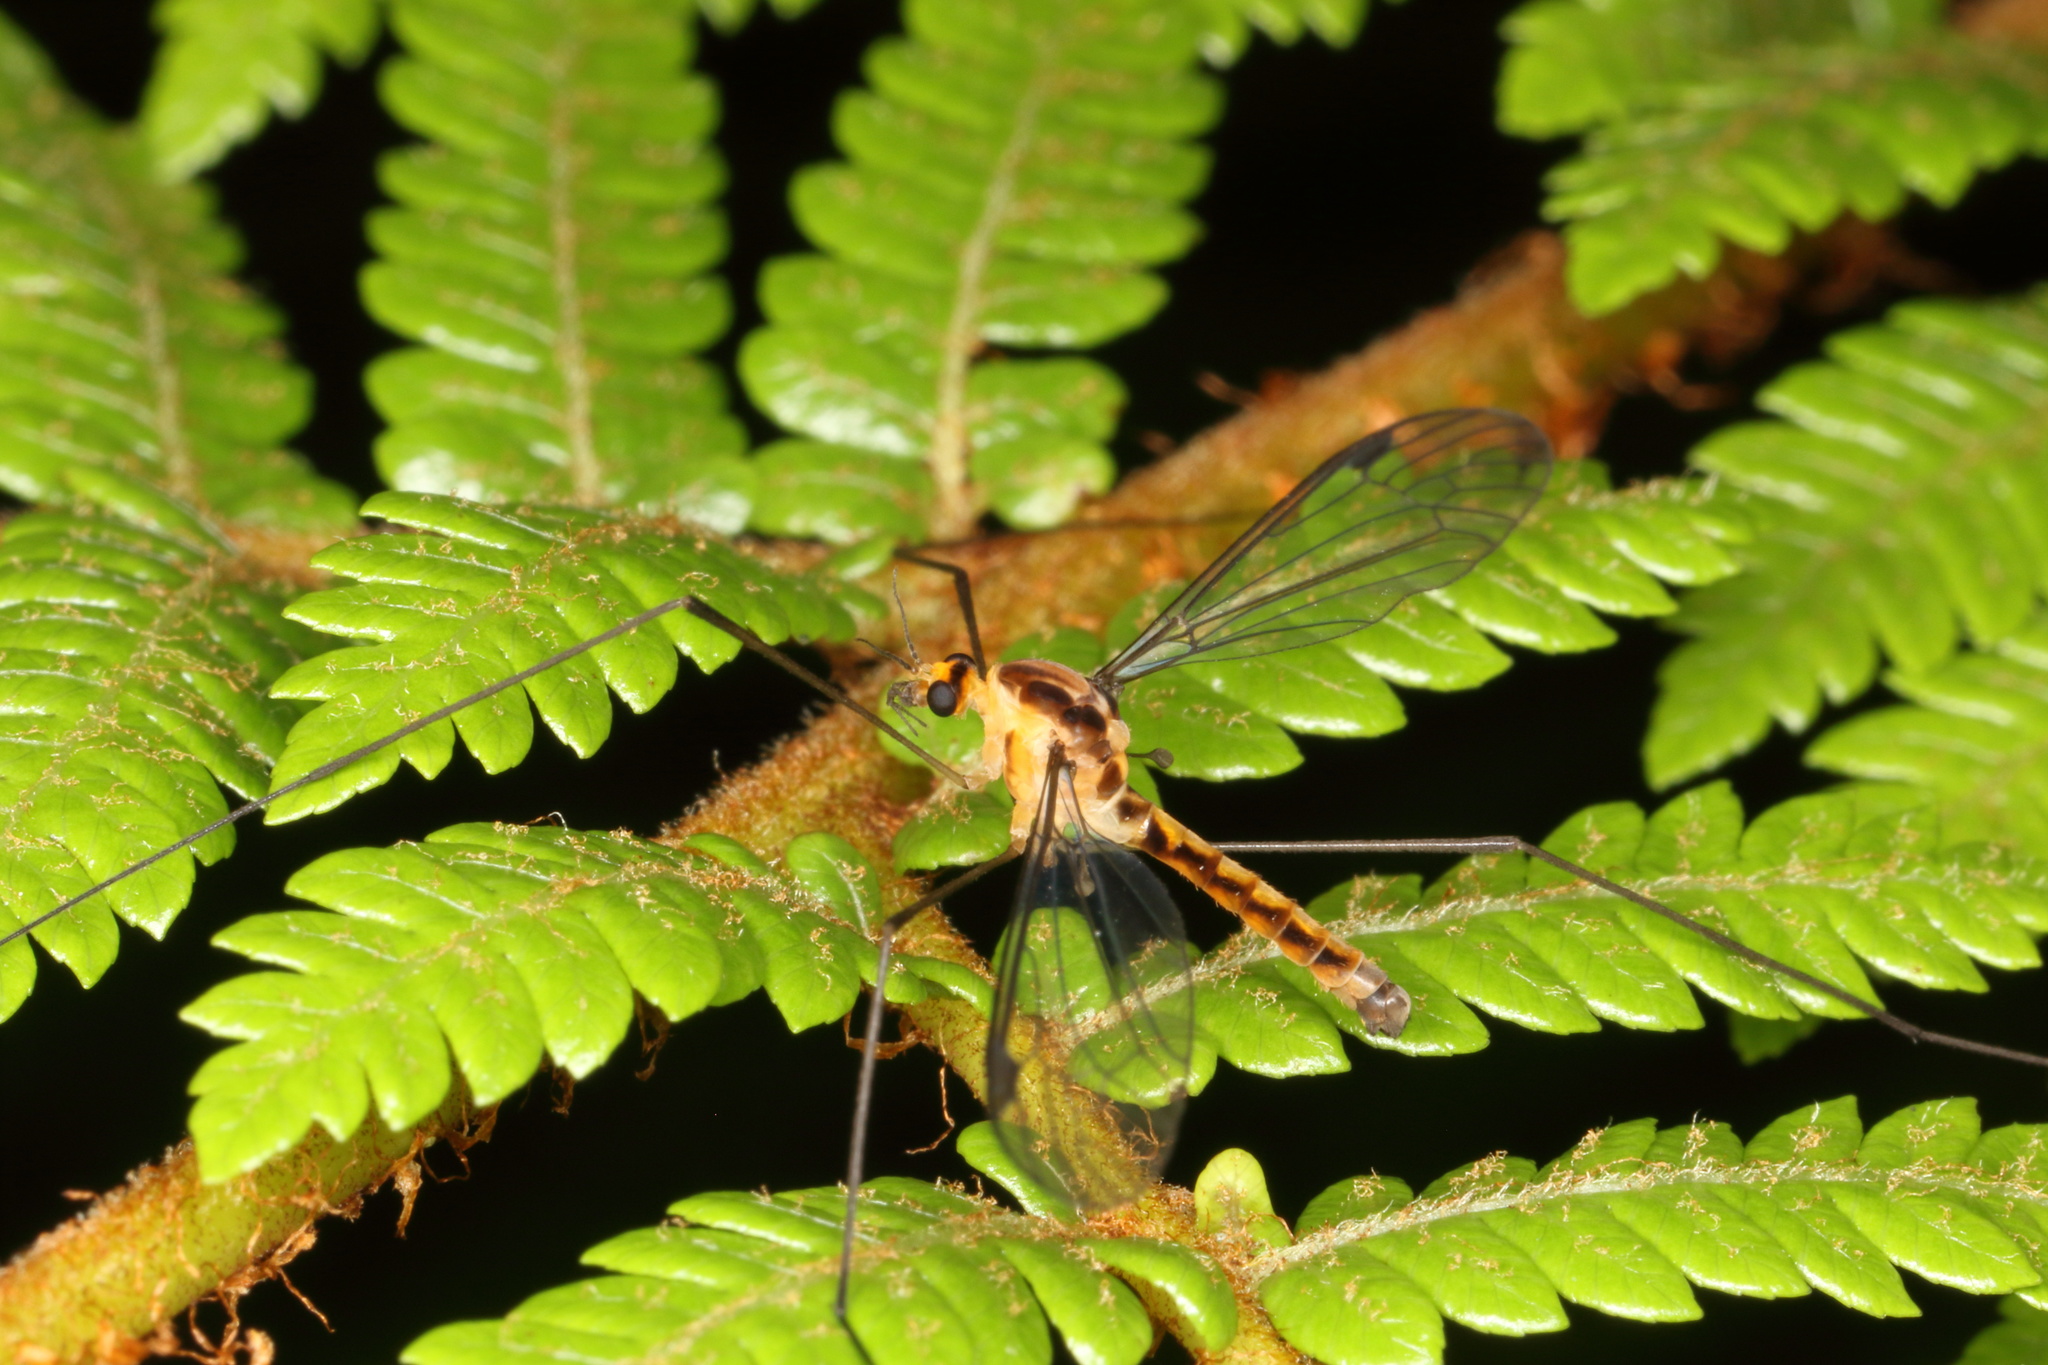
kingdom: Animalia
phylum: Arthropoda
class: Insecta
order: Diptera
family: Tipulidae
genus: Leptotarsus
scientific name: Leptotarsus subtener
